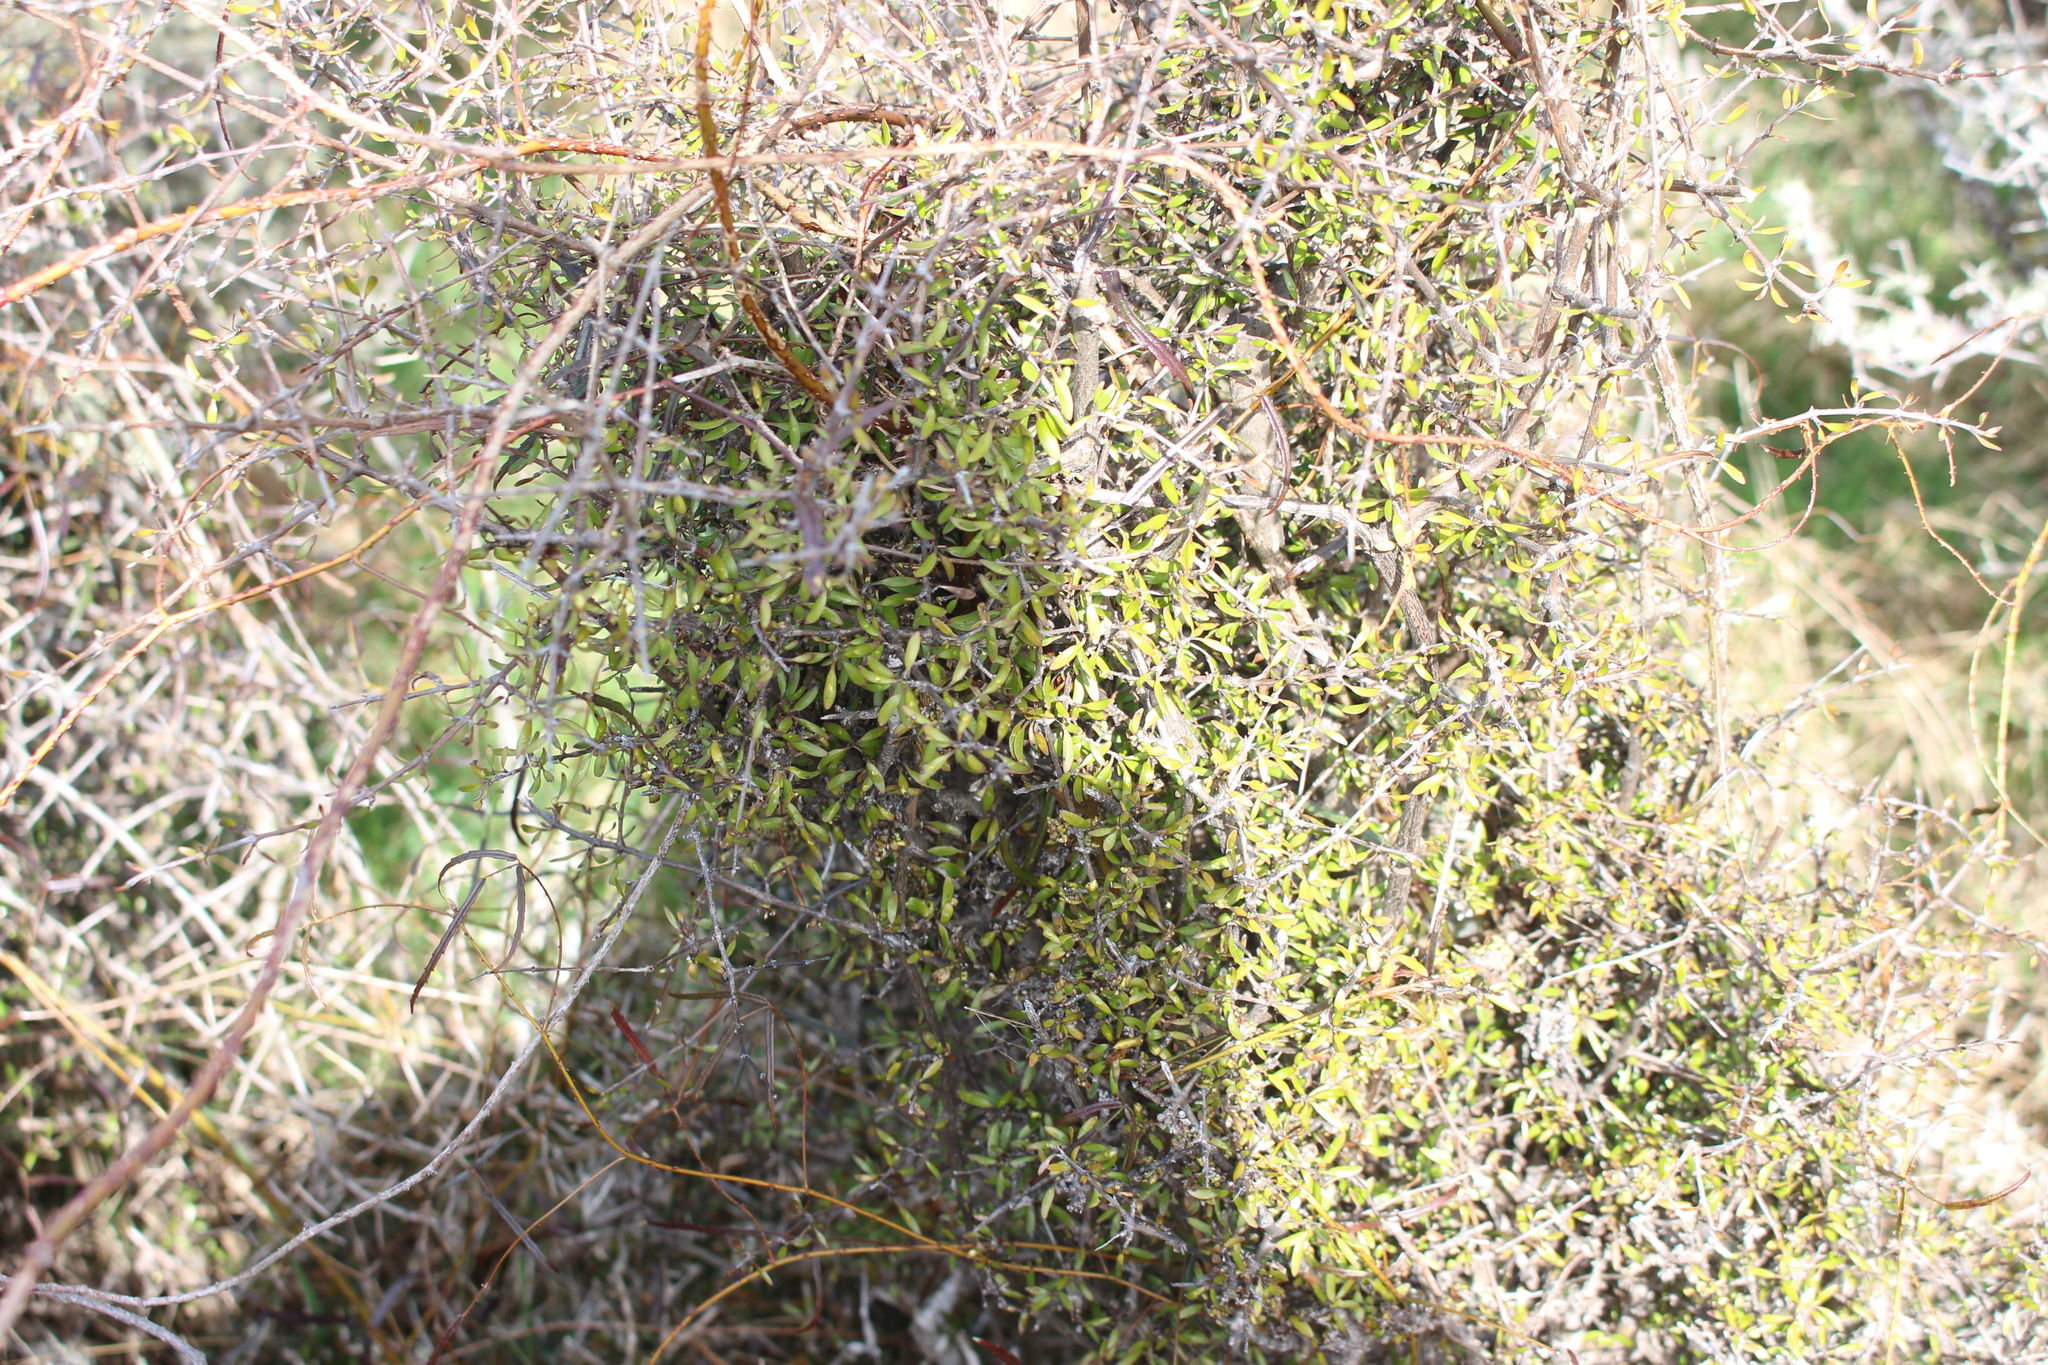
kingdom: Plantae
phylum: Tracheophyta
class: Magnoliopsida
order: Gentianales
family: Rubiaceae
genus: Coprosma
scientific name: Coprosma propinqua
